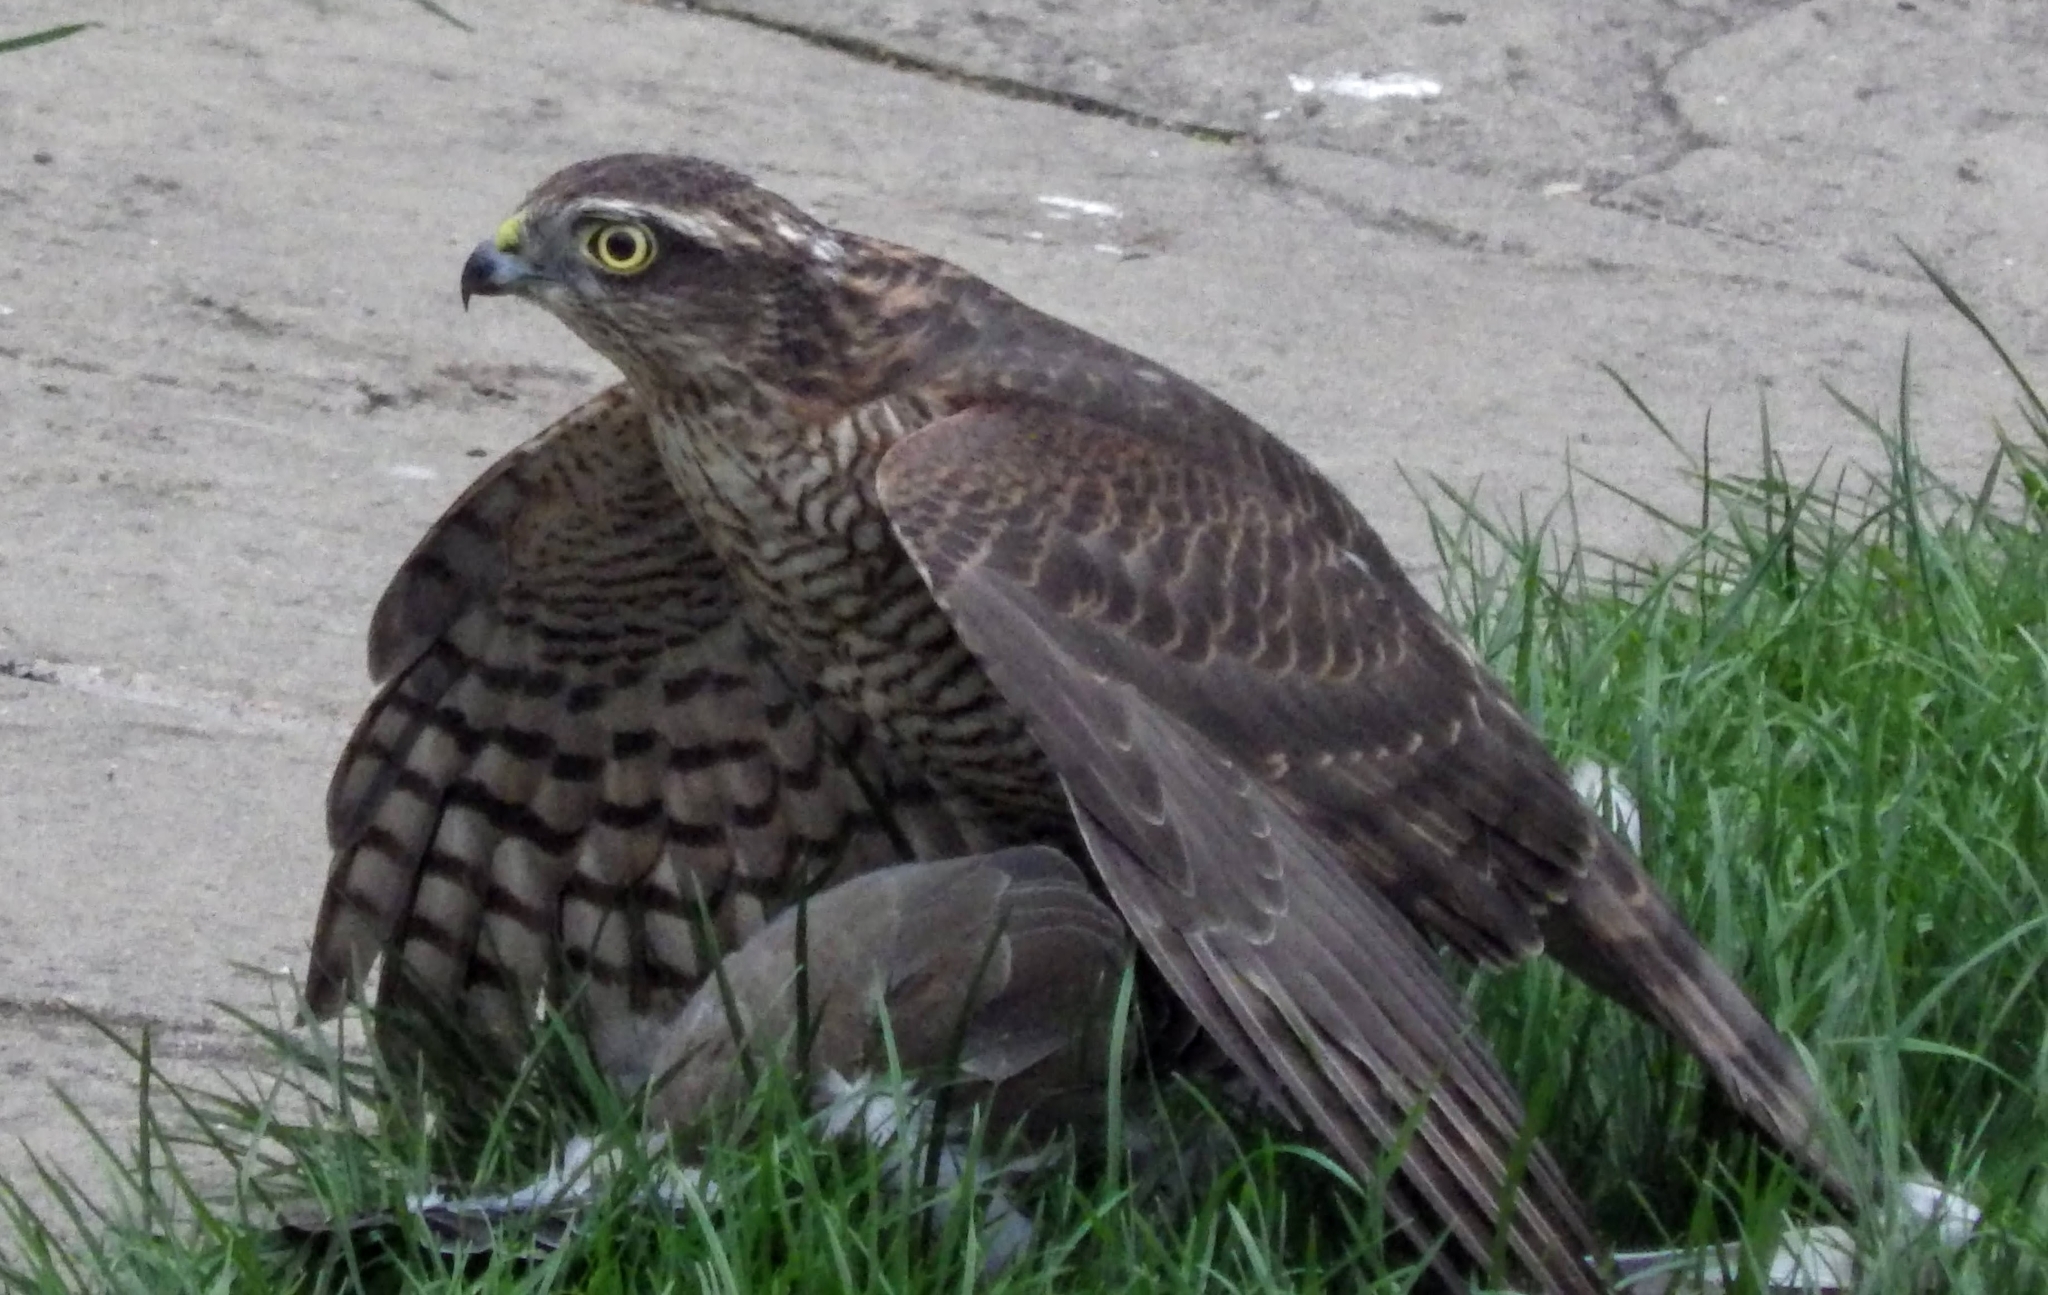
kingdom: Animalia
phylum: Chordata
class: Aves
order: Accipitriformes
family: Accipitridae
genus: Accipiter
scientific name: Accipiter nisus
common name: Eurasian sparrowhawk
